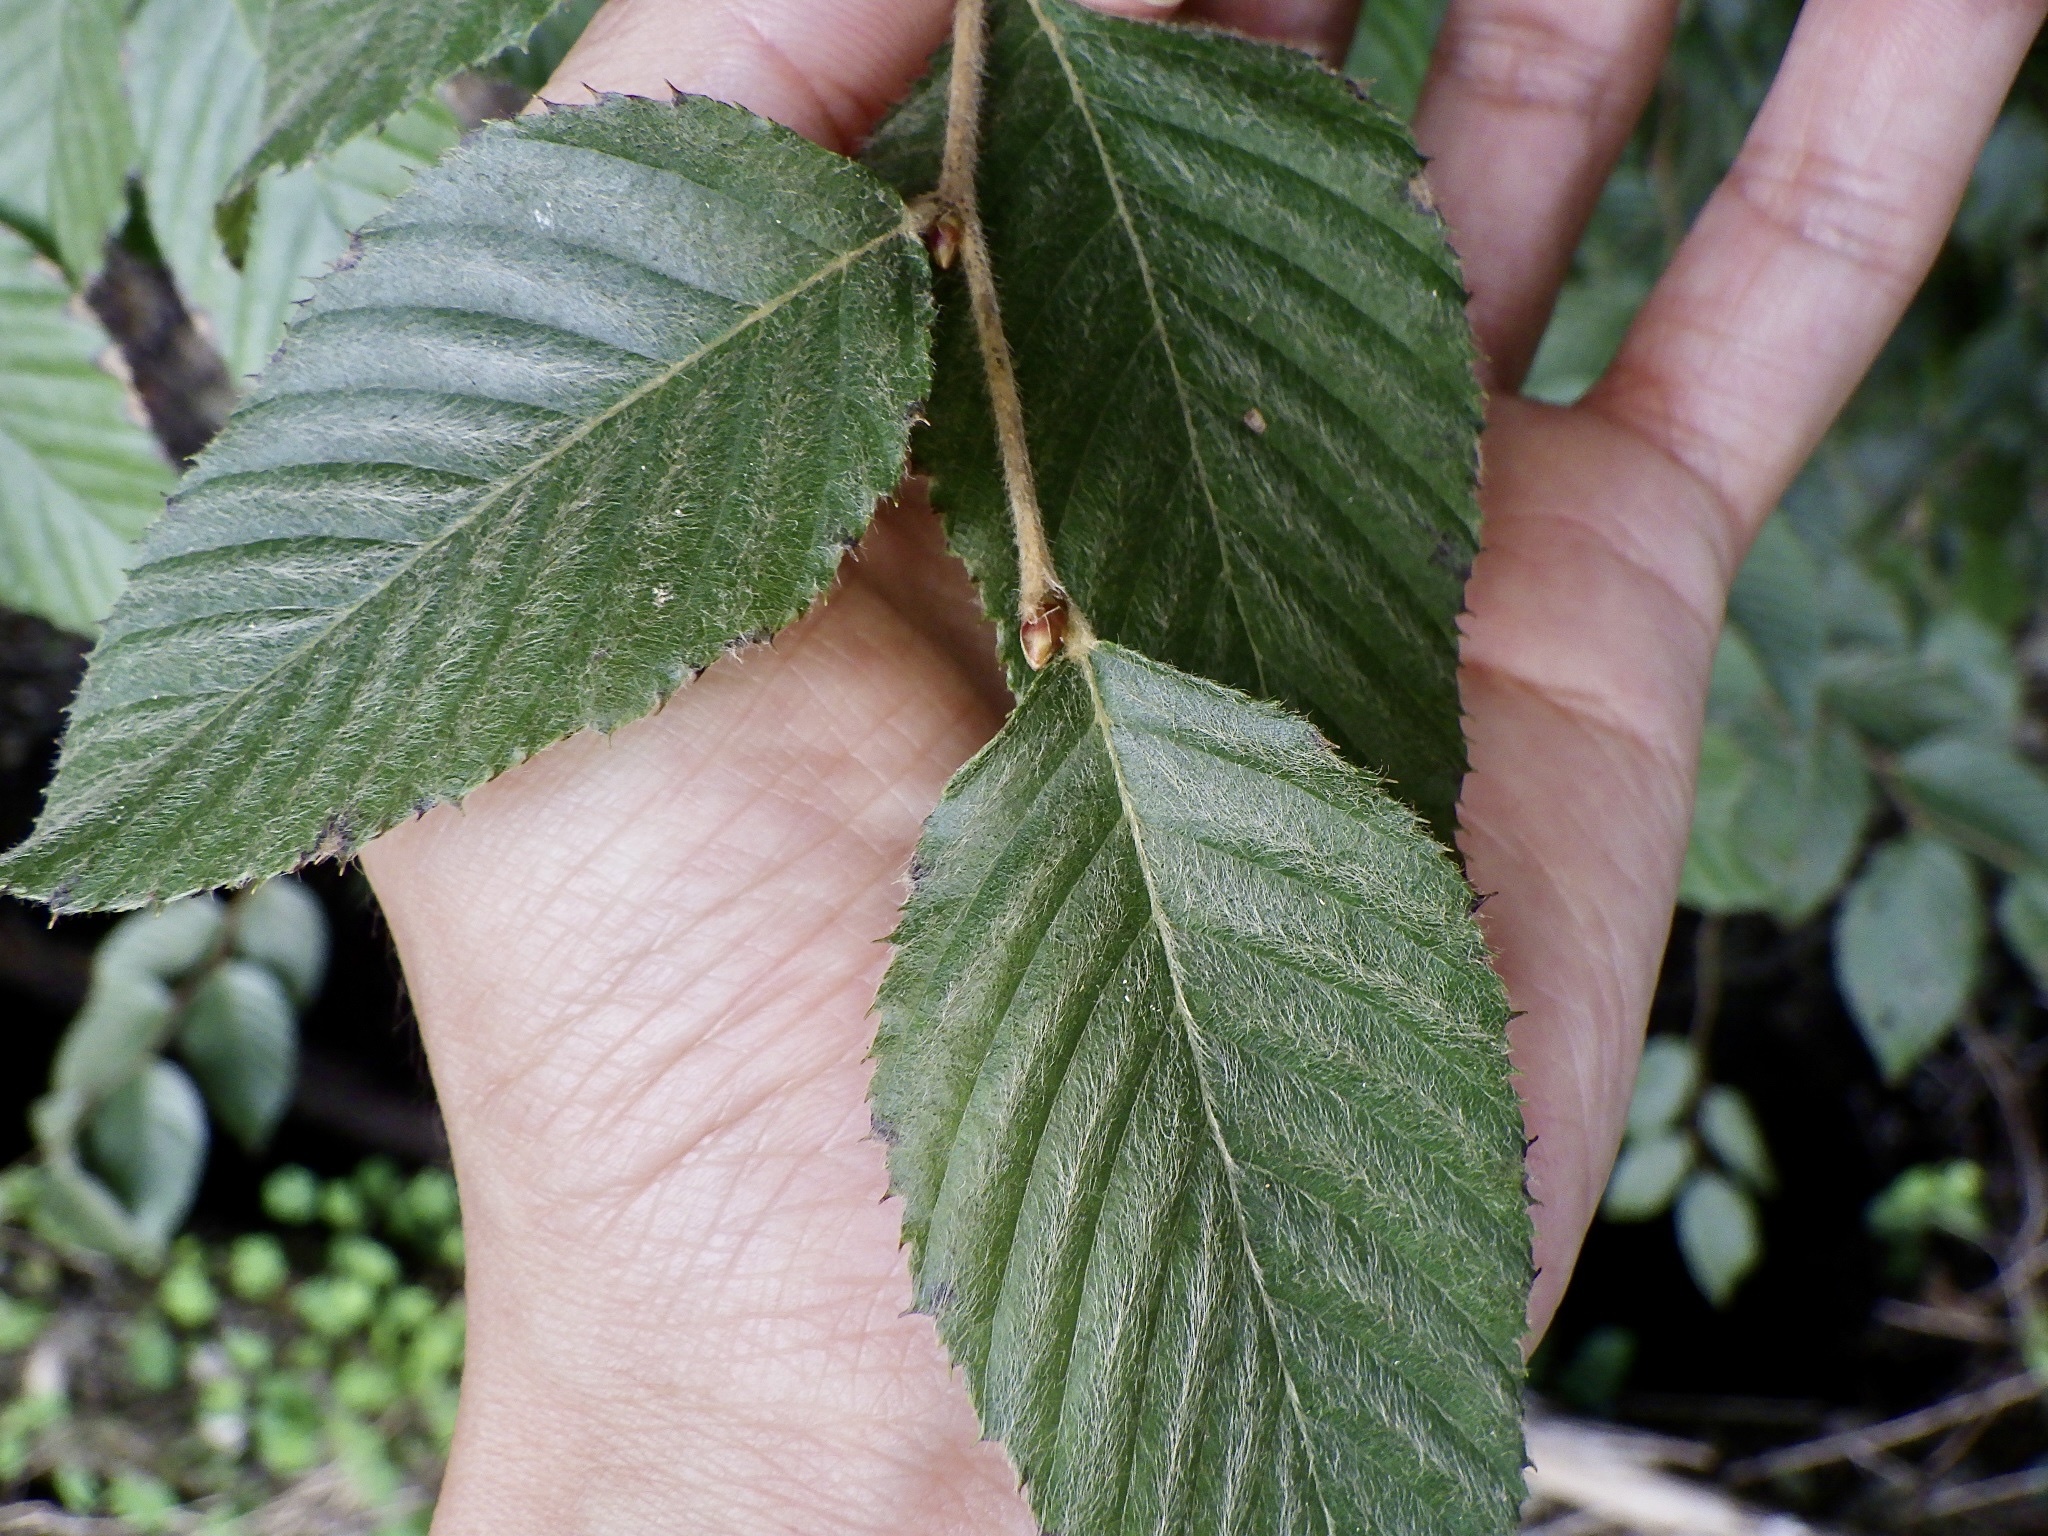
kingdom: Plantae
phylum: Tracheophyta
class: Magnoliopsida
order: Fagales
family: Betulaceae
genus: Carpinus
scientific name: Carpinus tschonoskii
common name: Asian hornbeam
